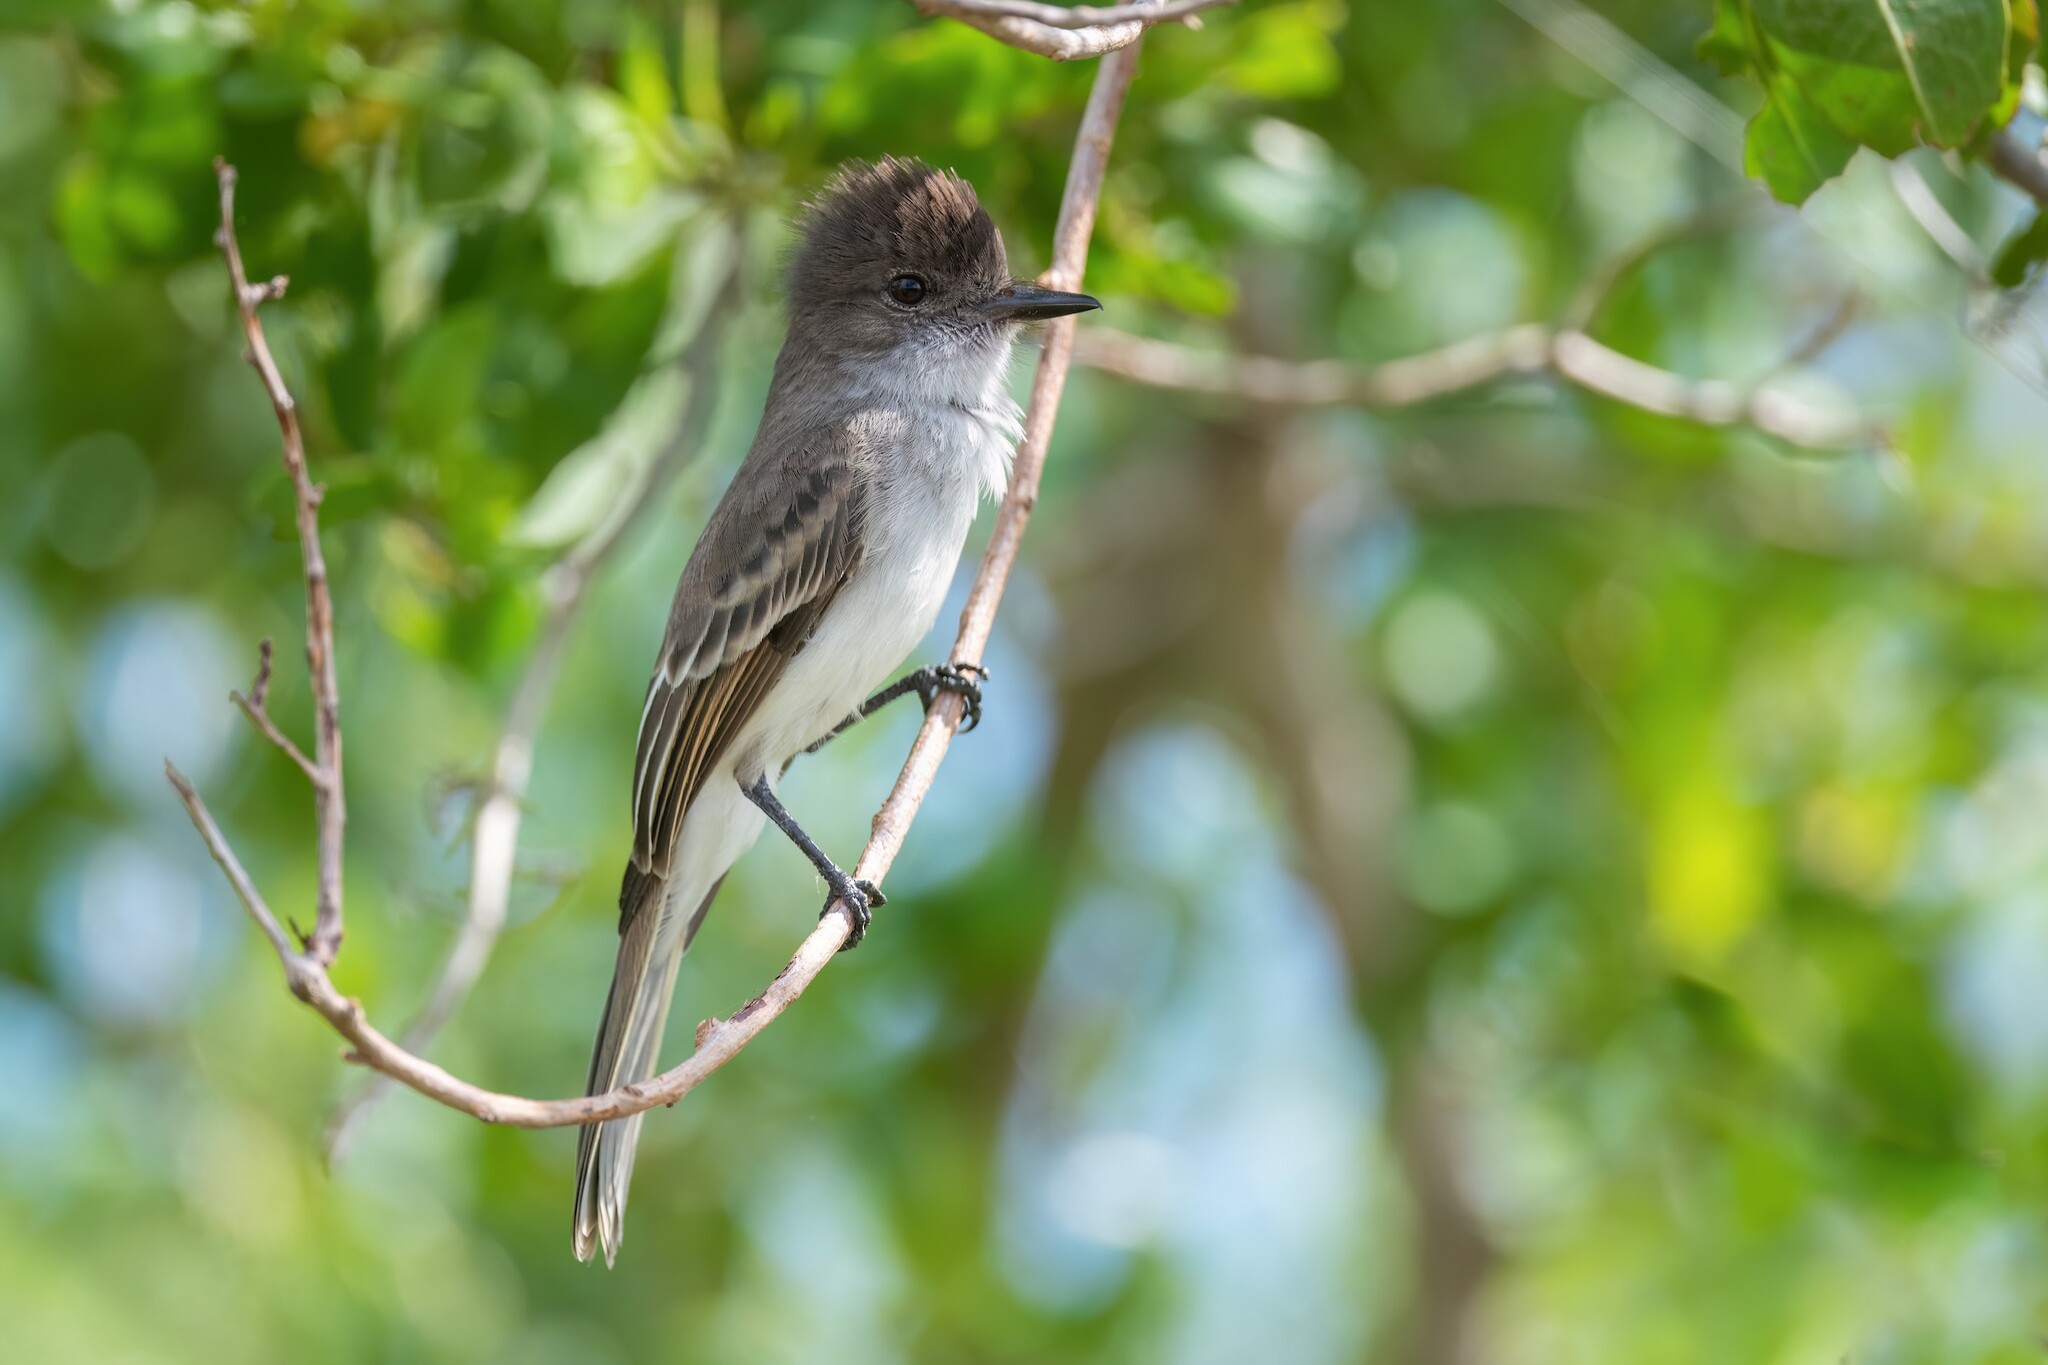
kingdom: Animalia
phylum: Chordata
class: Aves
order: Passeriformes
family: Tyrannidae
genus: Myiarchus
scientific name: Myiarchus antillarum
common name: Puerto rican flycatcher
